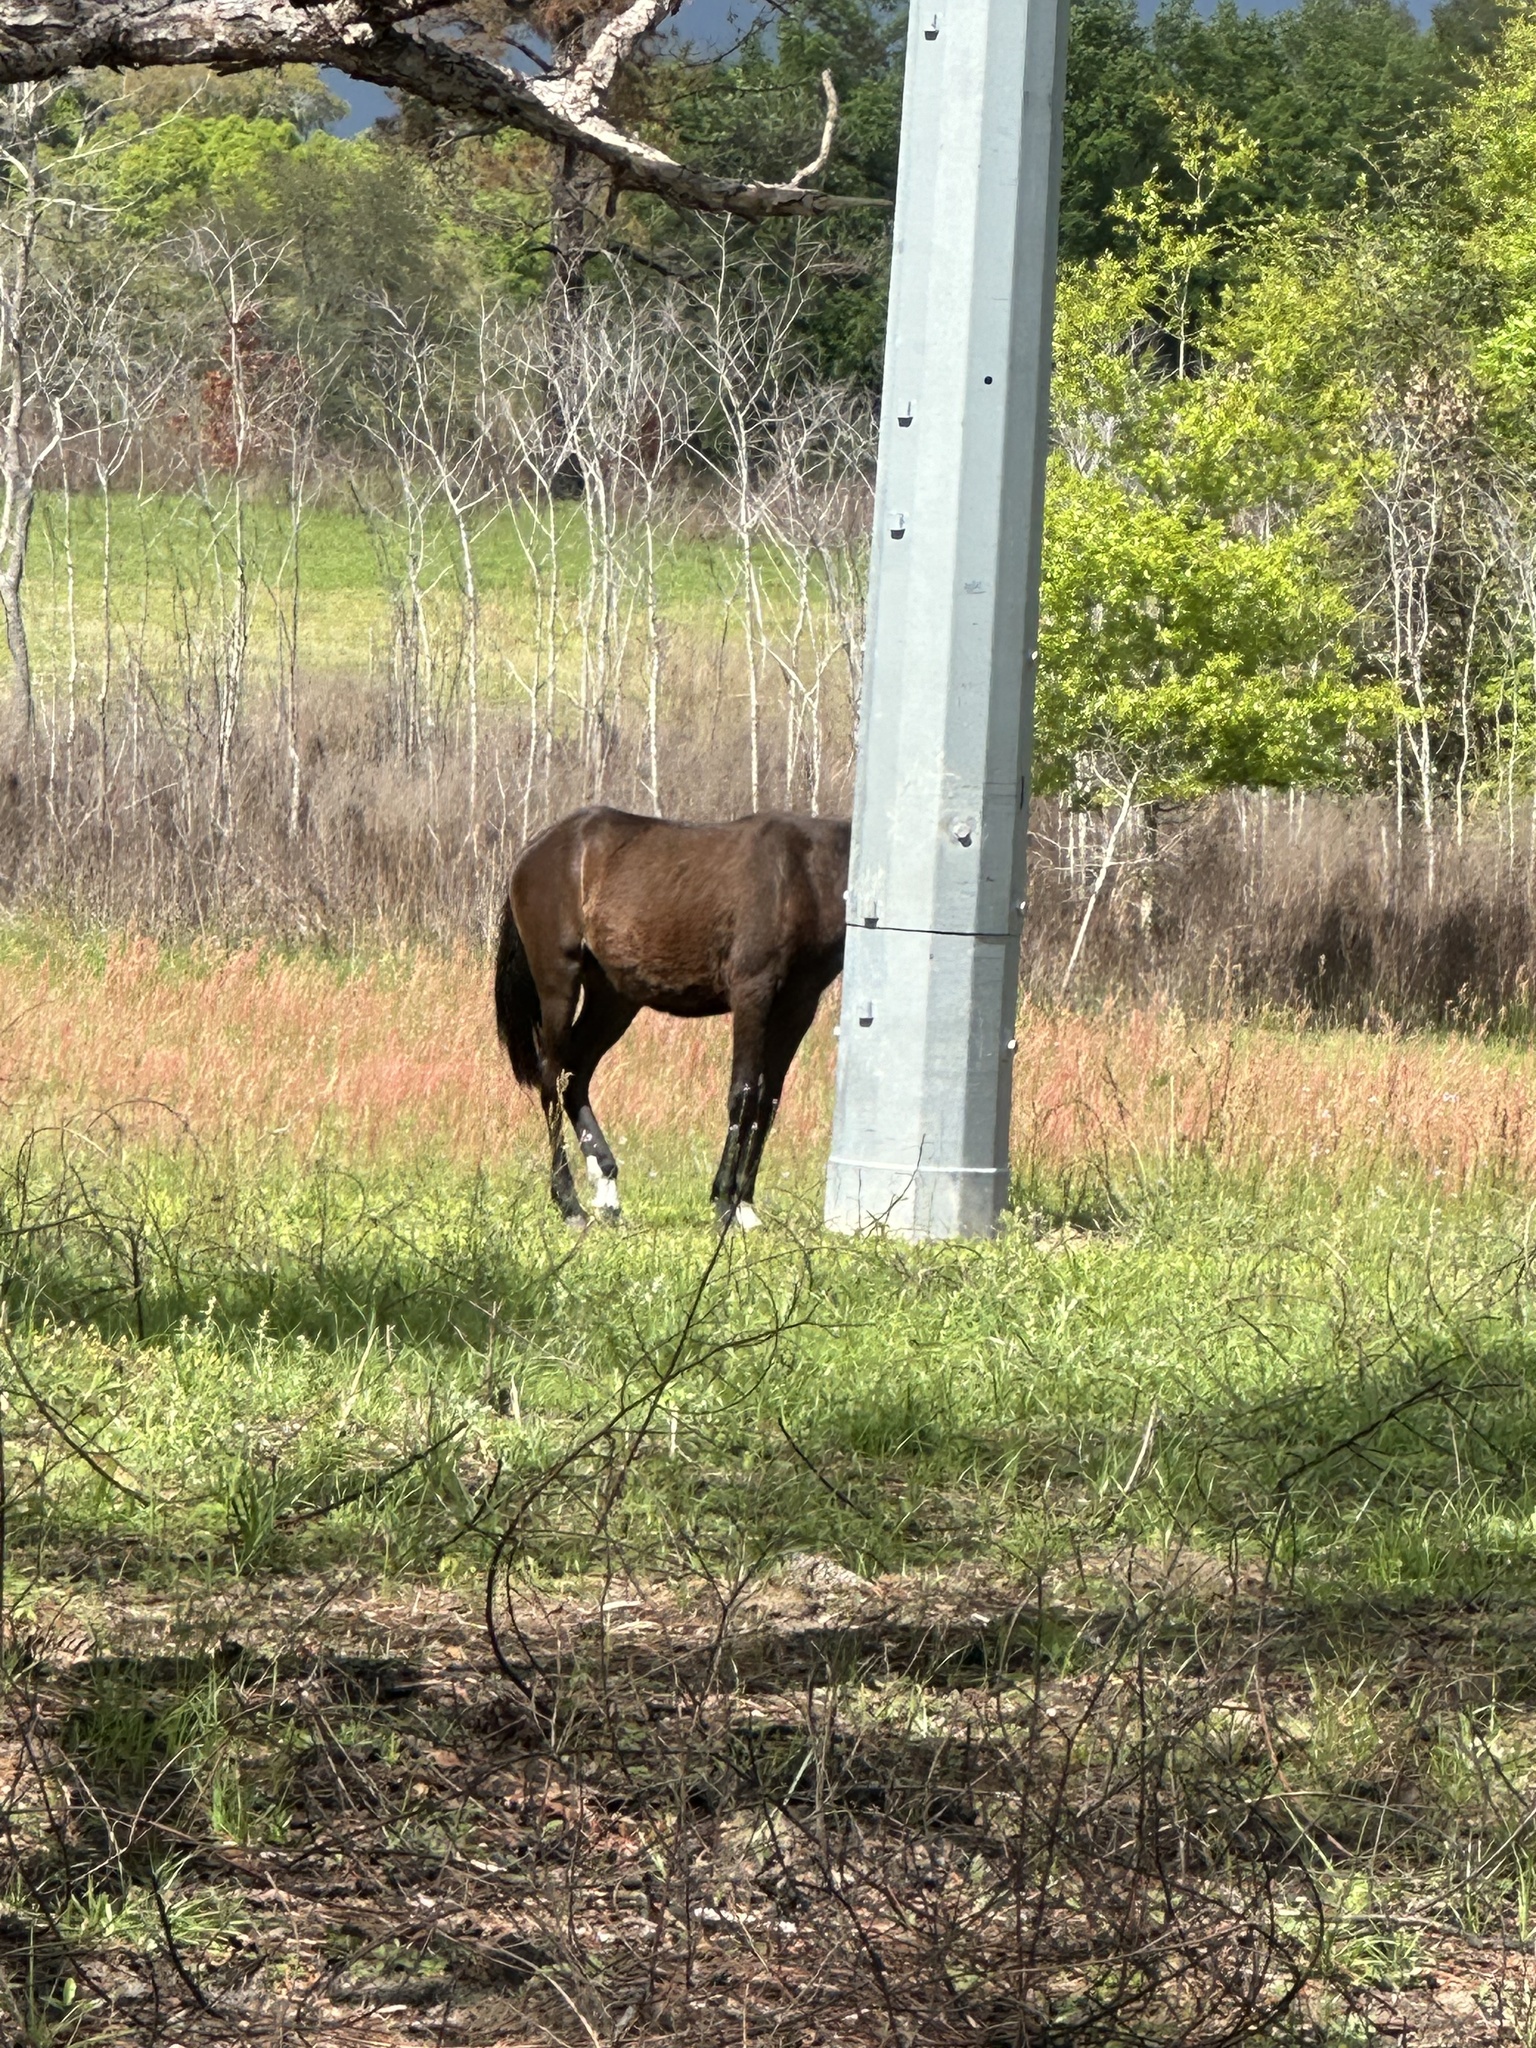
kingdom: Animalia
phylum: Chordata
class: Mammalia
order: Perissodactyla
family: Equidae
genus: Equus
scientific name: Equus caballus
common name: Horse
